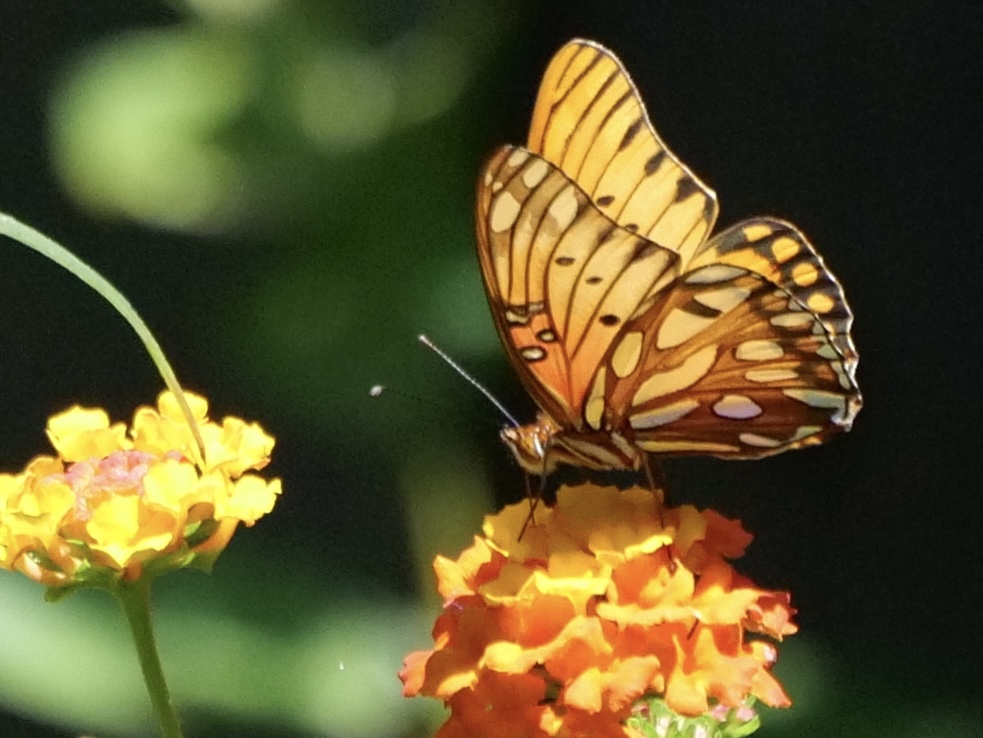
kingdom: Animalia
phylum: Arthropoda
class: Insecta
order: Lepidoptera
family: Nymphalidae
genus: Dione
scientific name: Dione vanillae
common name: Gulf fritillary
